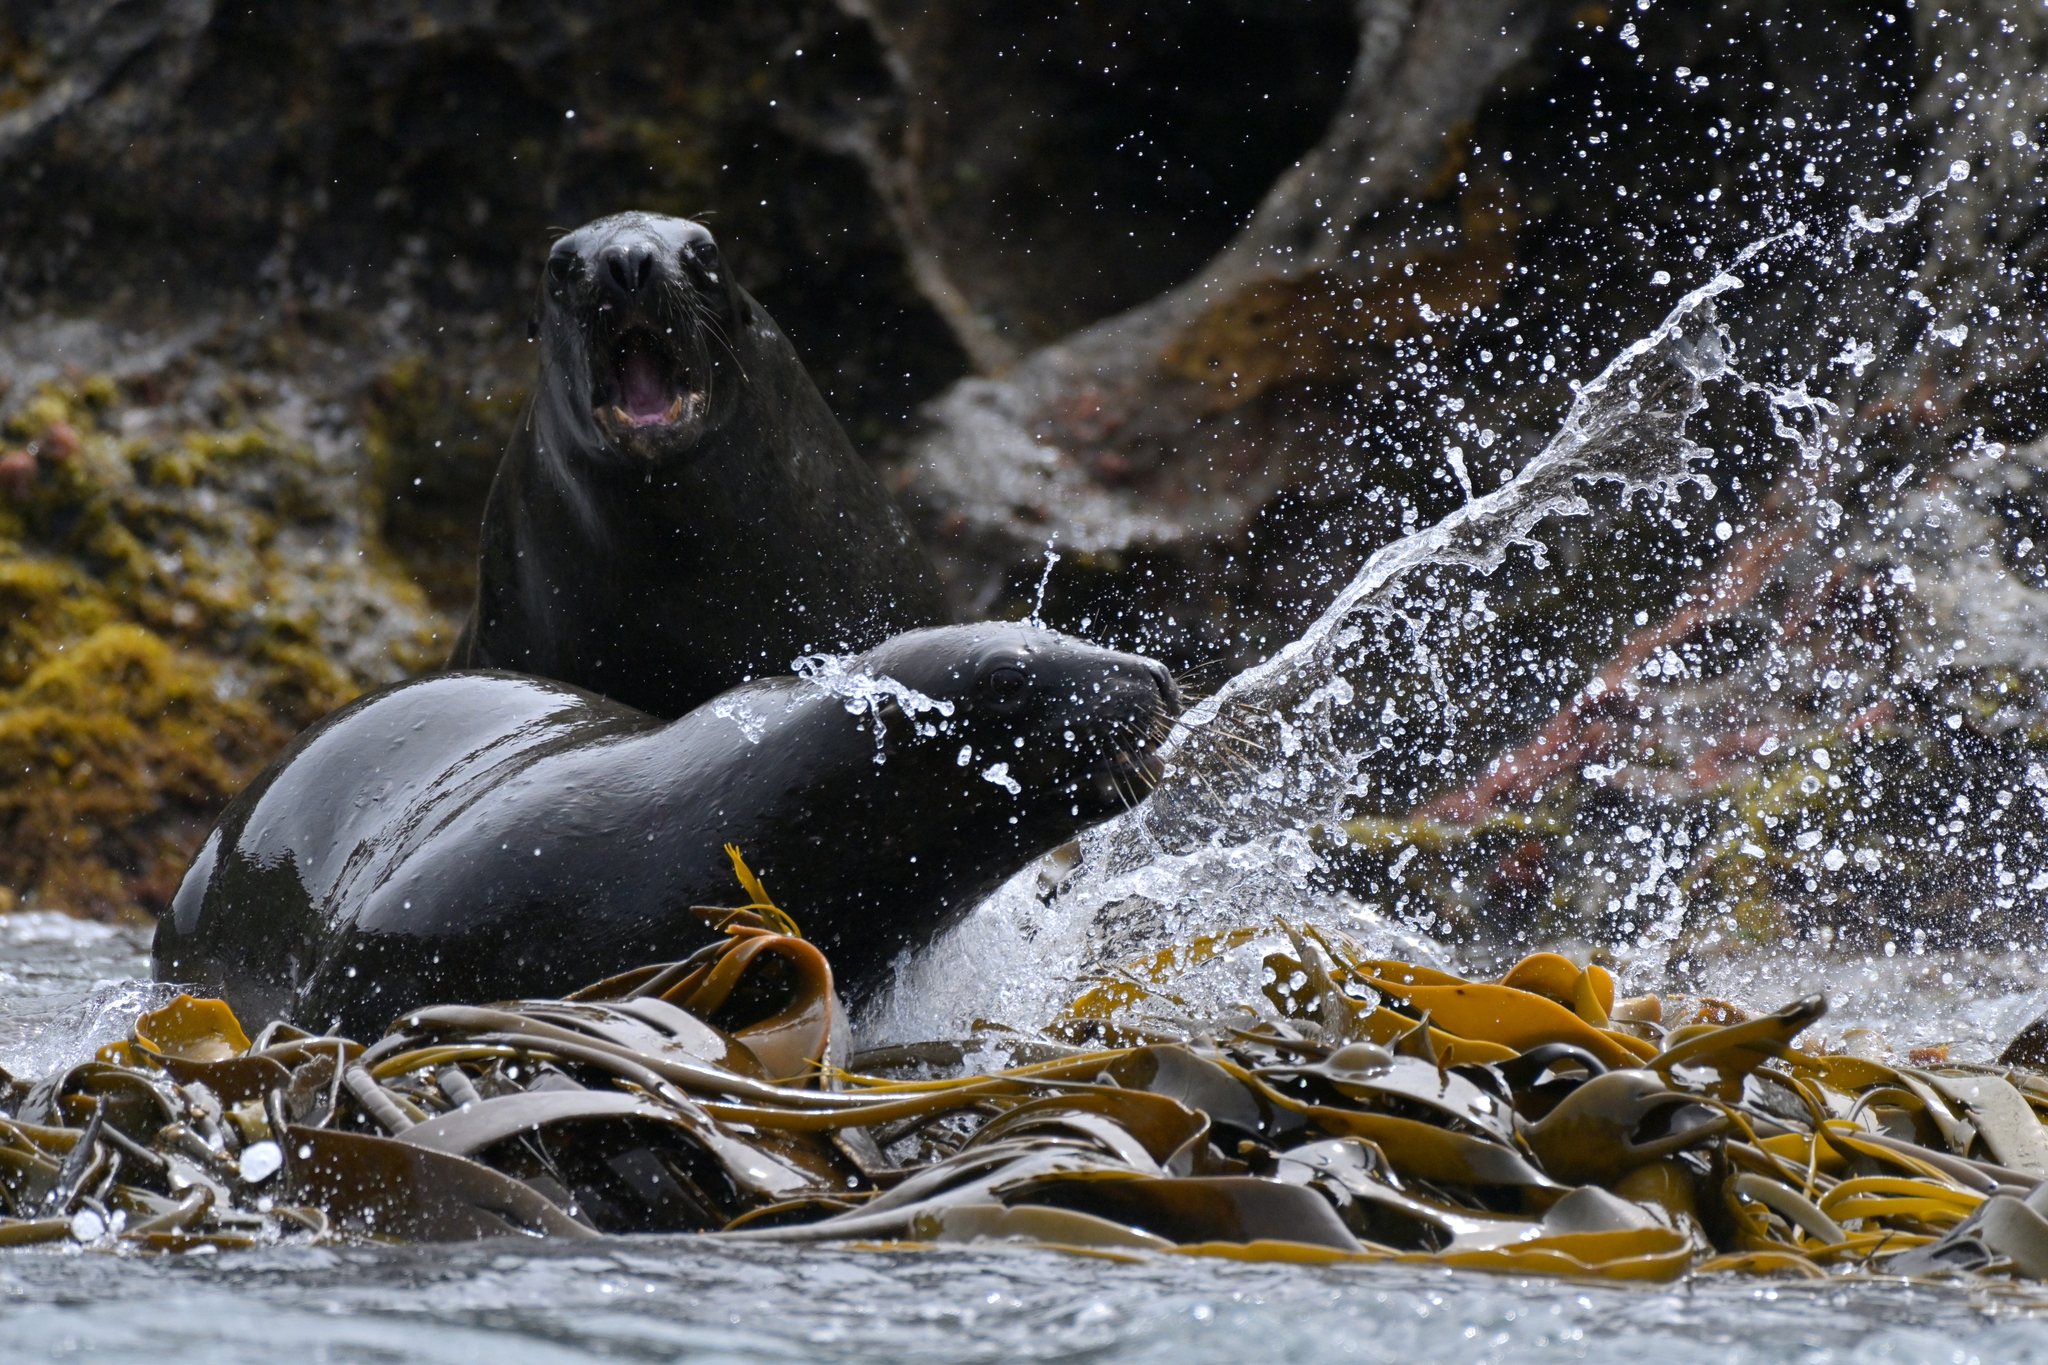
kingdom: Animalia
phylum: Chordata
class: Mammalia
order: Carnivora
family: Otariidae
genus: Phocarctos
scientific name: Phocarctos hookeri
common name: New zealand sea lion
